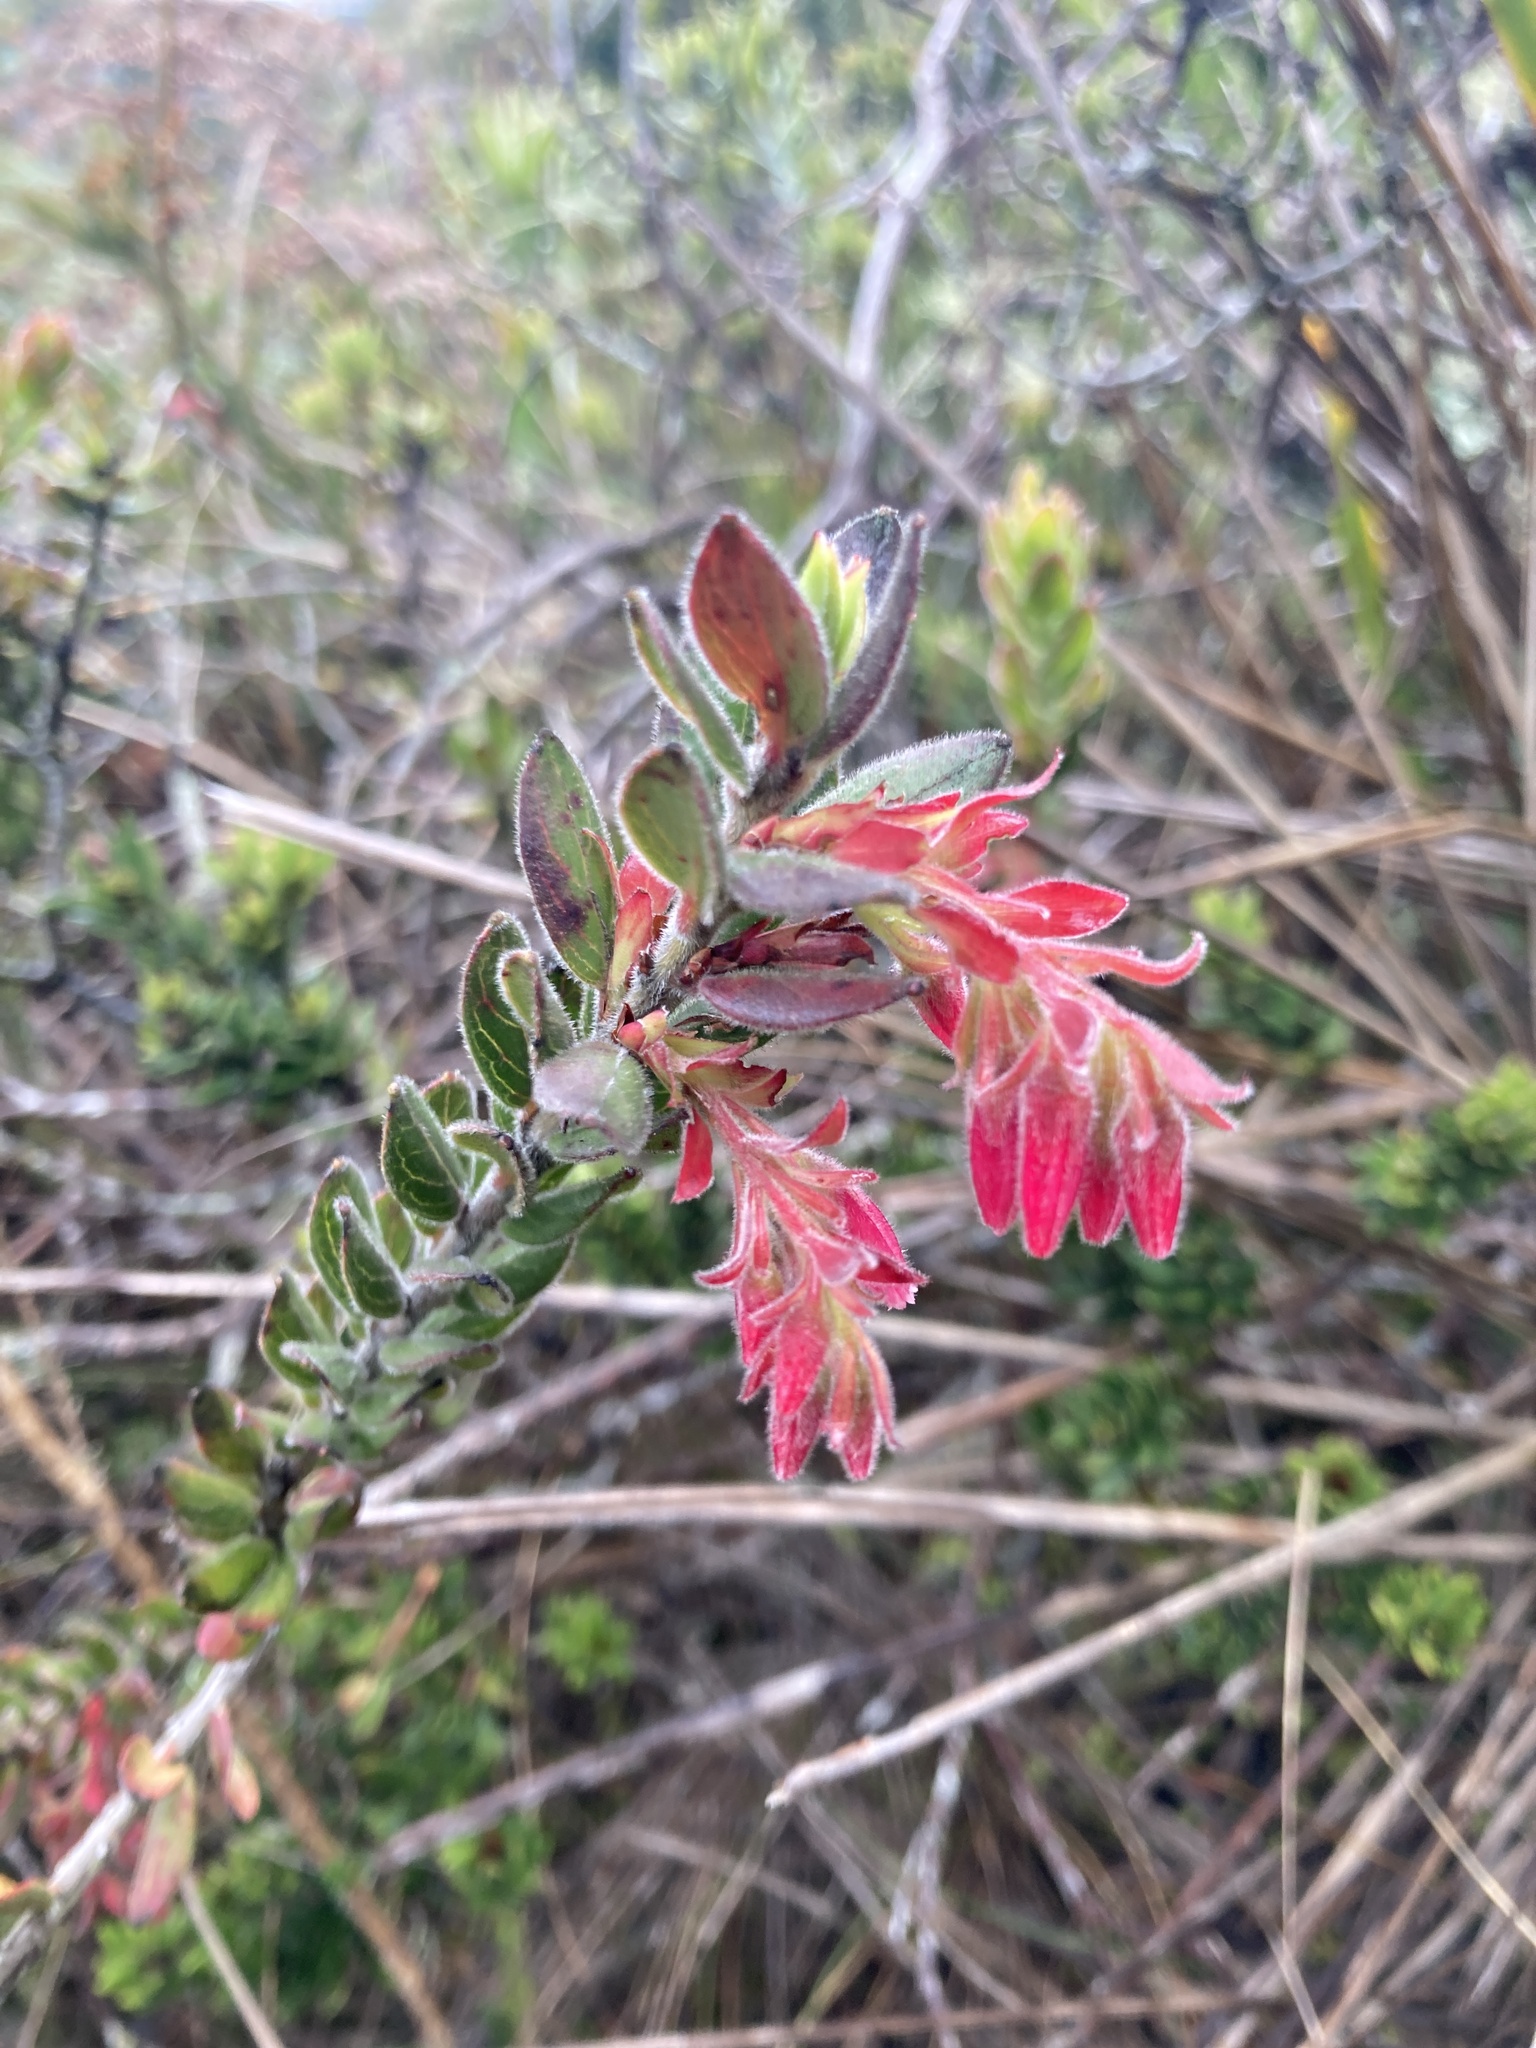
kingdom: Plantae
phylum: Tracheophyta
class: Magnoliopsida
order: Ericales
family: Ericaceae
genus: Gaylussacia
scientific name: Gaylussacia buxifolia
